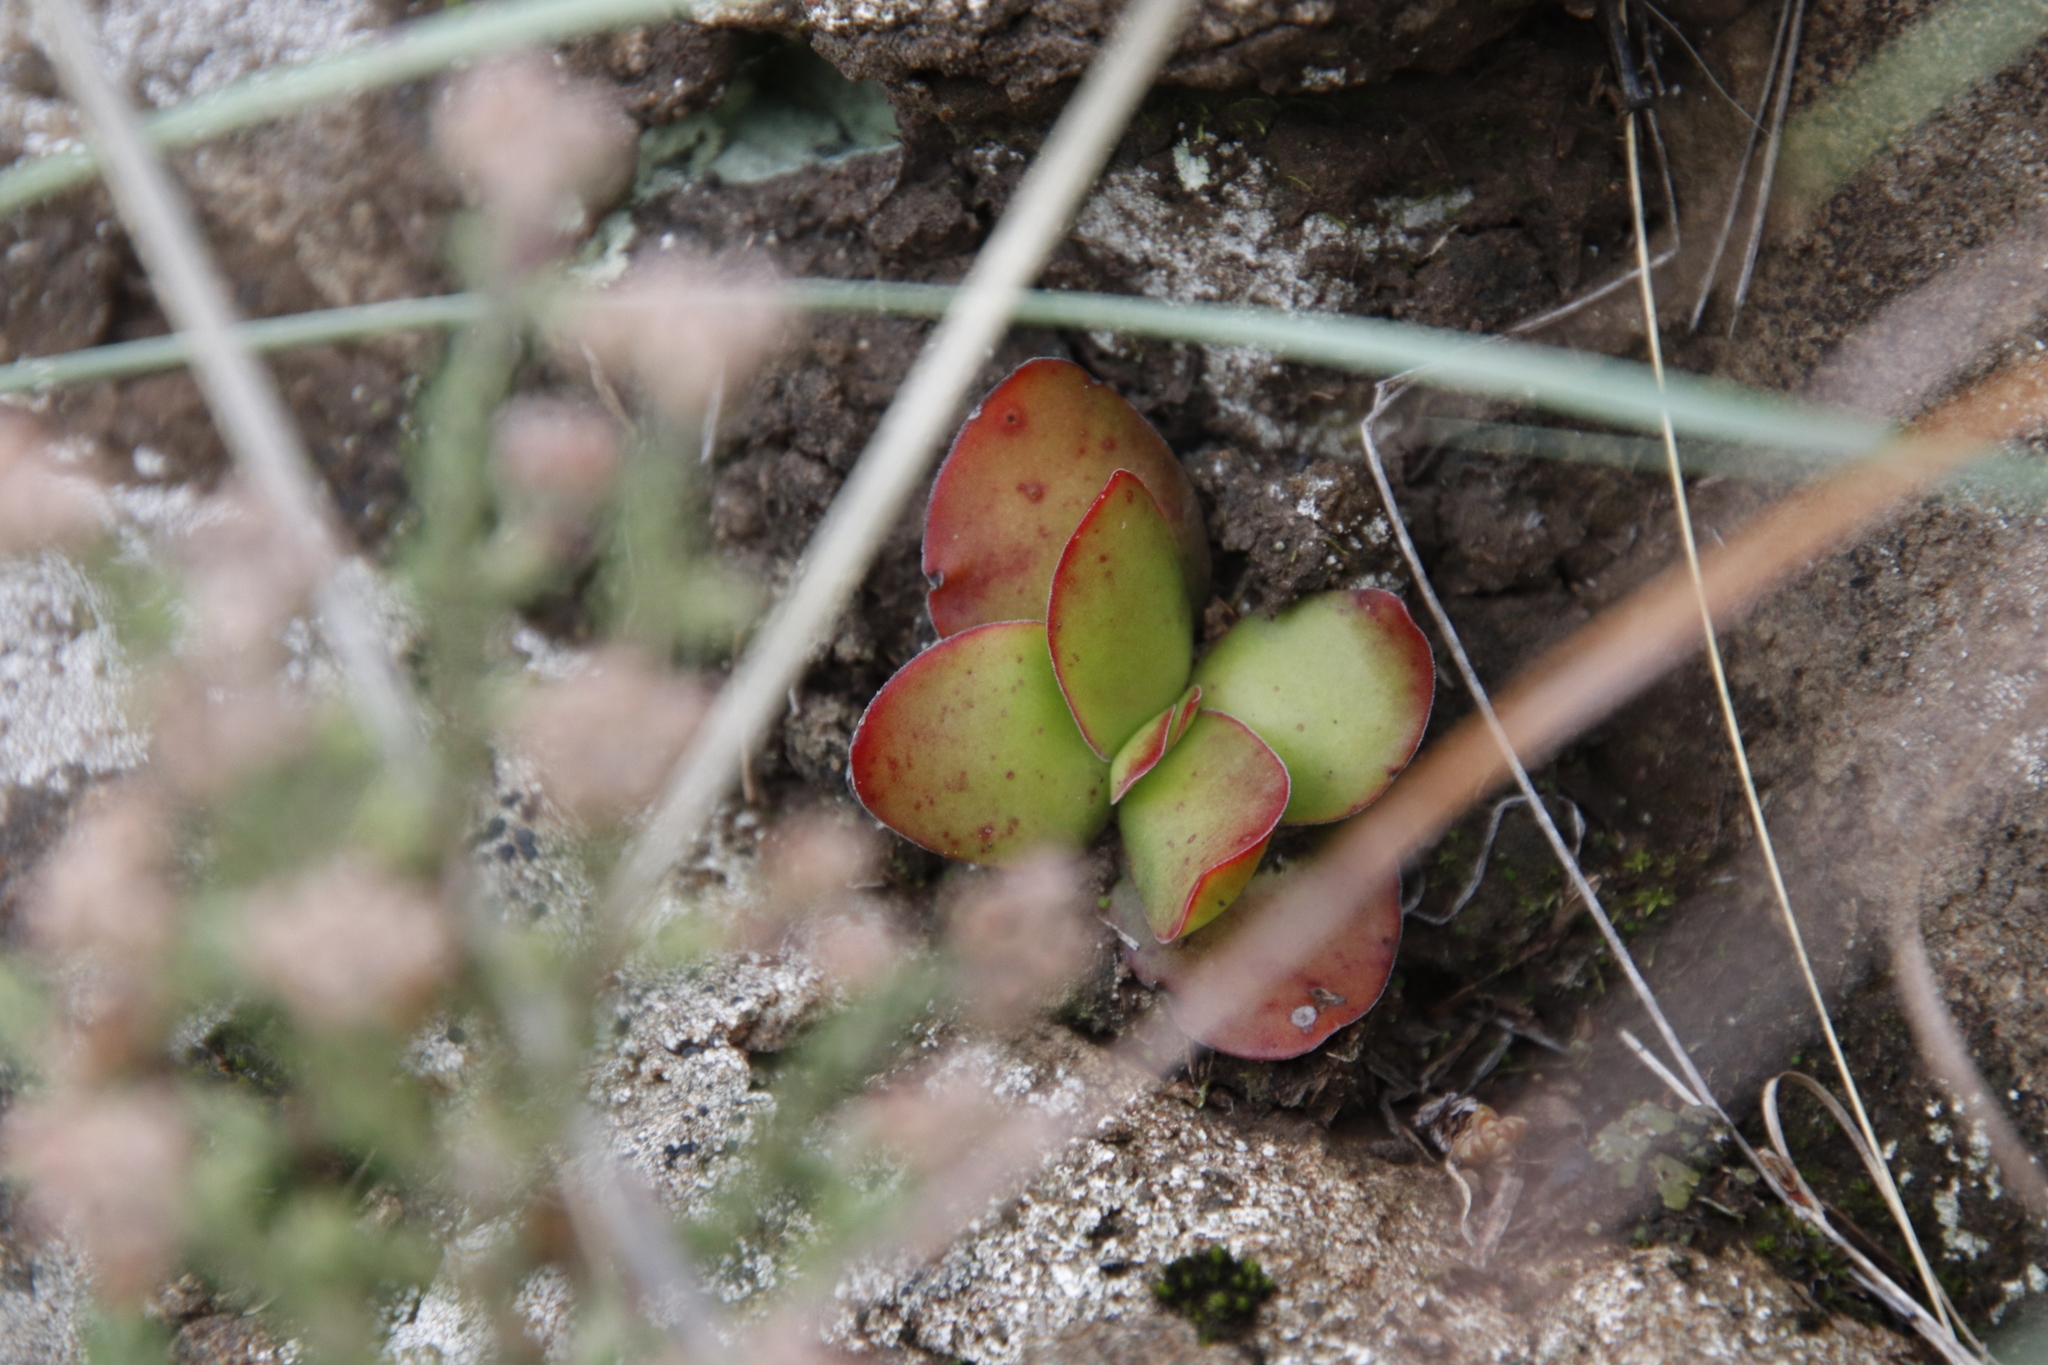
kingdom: Plantae
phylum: Tracheophyta
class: Magnoliopsida
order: Saxifragales
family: Crassulaceae
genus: Crassula
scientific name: Crassula nudicaulis
